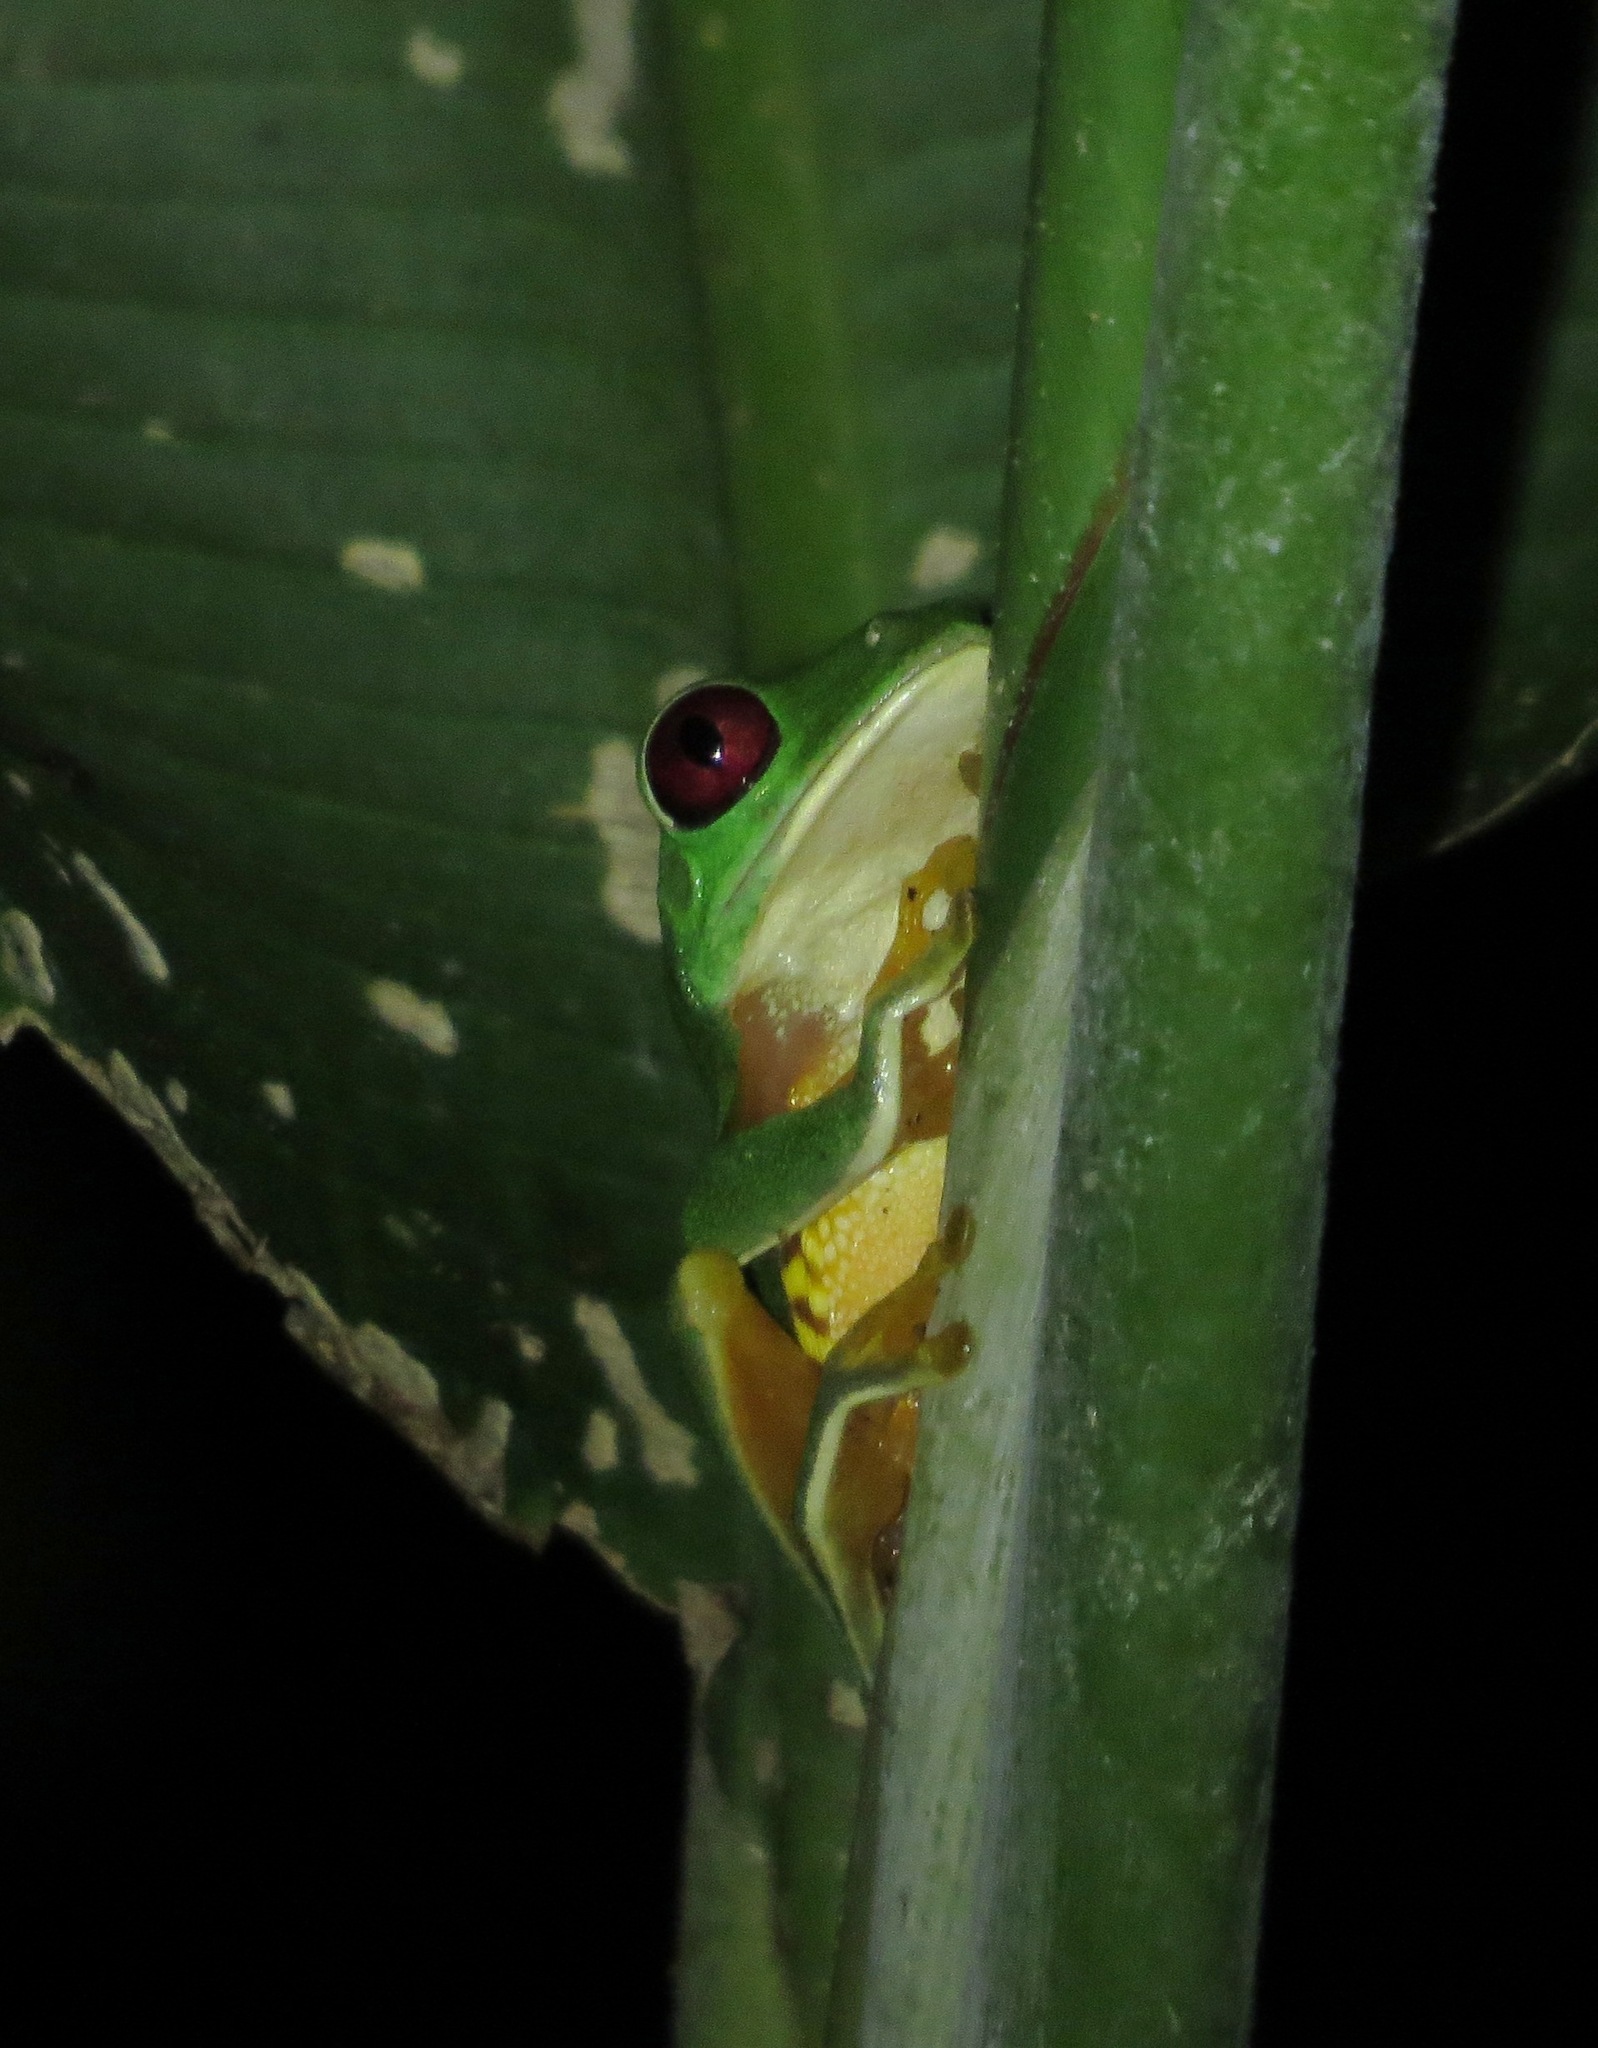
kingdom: Animalia
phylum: Chordata
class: Amphibia
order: Anura
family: Phyllomedusidae
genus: Agalychnis
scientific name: Agalychnis callidryas
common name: Red-eyed treefrog
